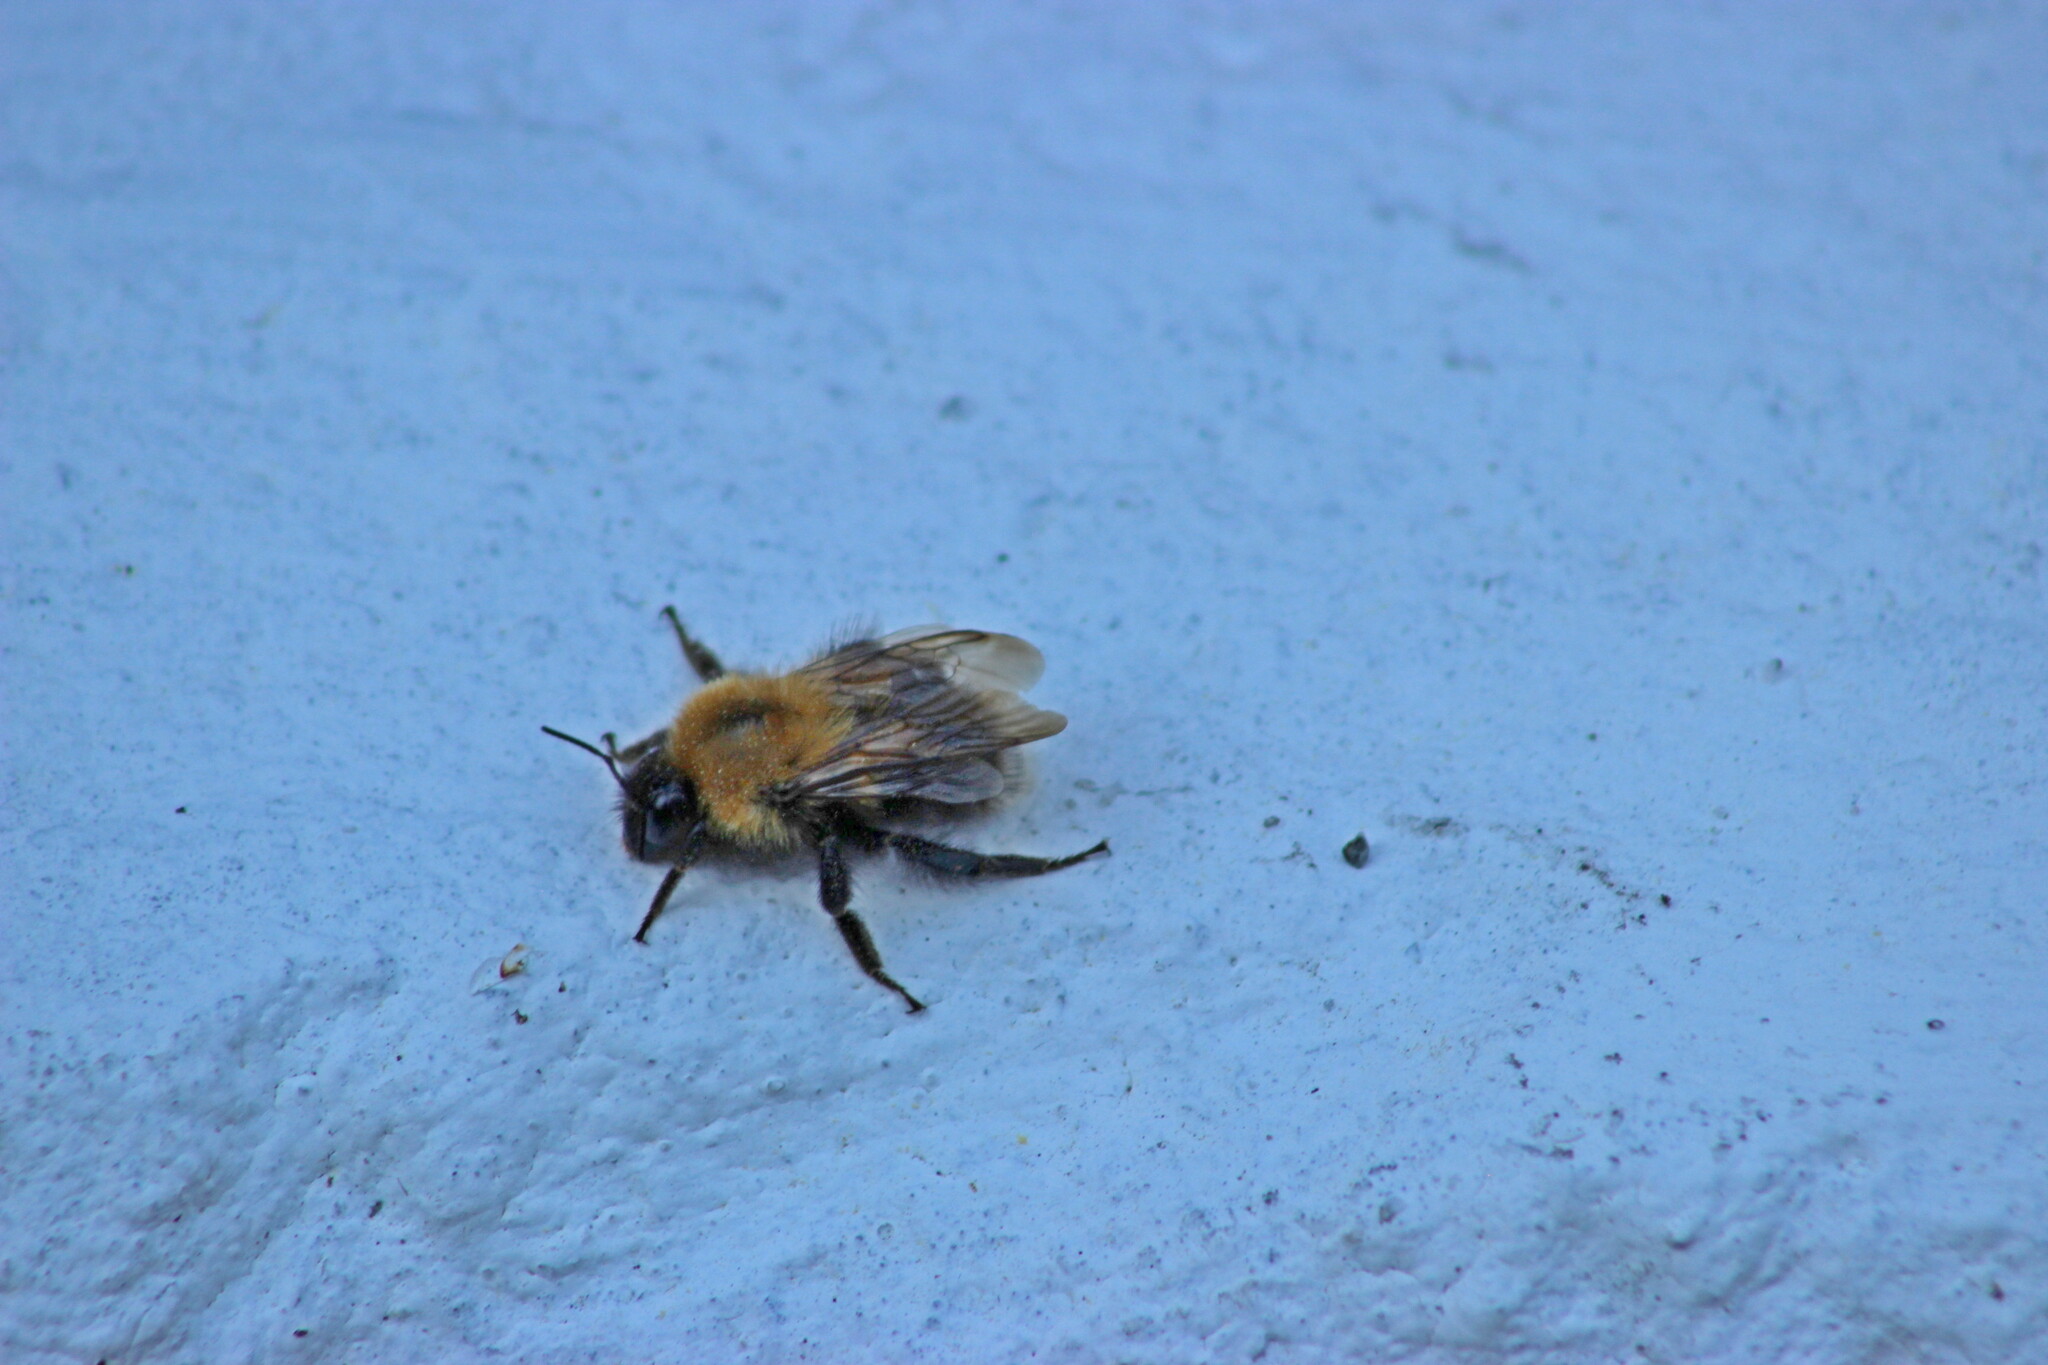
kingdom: Animalia
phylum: Arthropoda
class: Insecta
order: Hymenoptera
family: Apidae
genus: Bombus
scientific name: Bombus hypnorum
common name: New garden bumblebee
